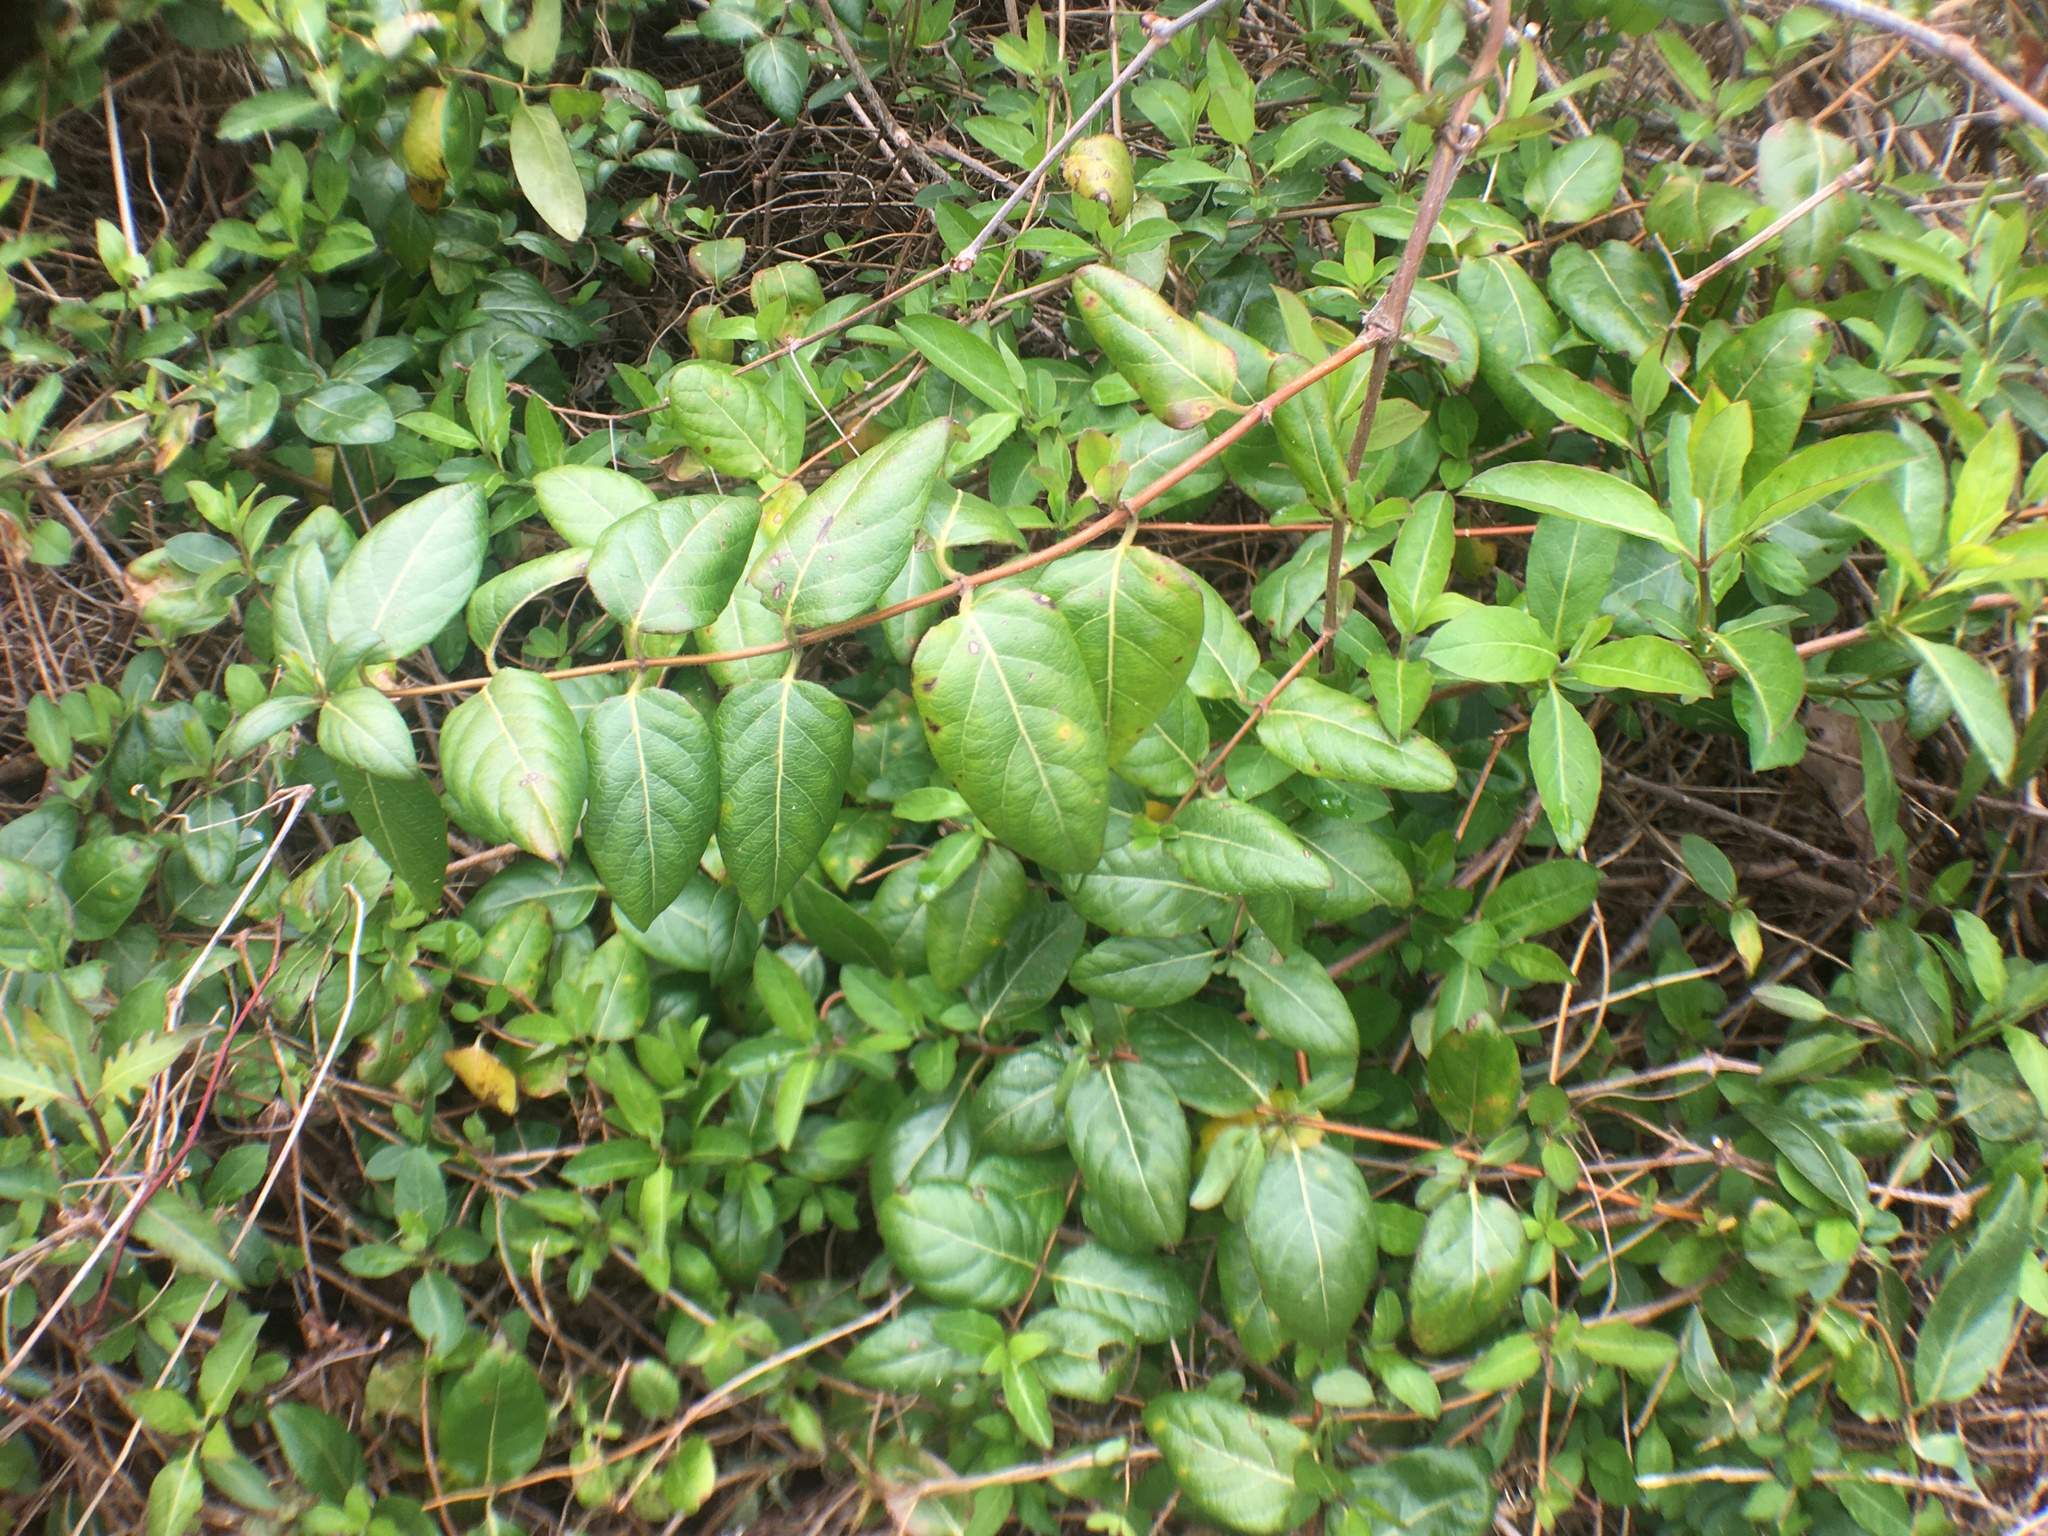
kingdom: Plantae
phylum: Tracheophyta
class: Magnoliopsida
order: Dipsacales
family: Caprifoliaceae
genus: Lonicera
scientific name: Lonicera japonica
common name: Japanese honeysuckle
